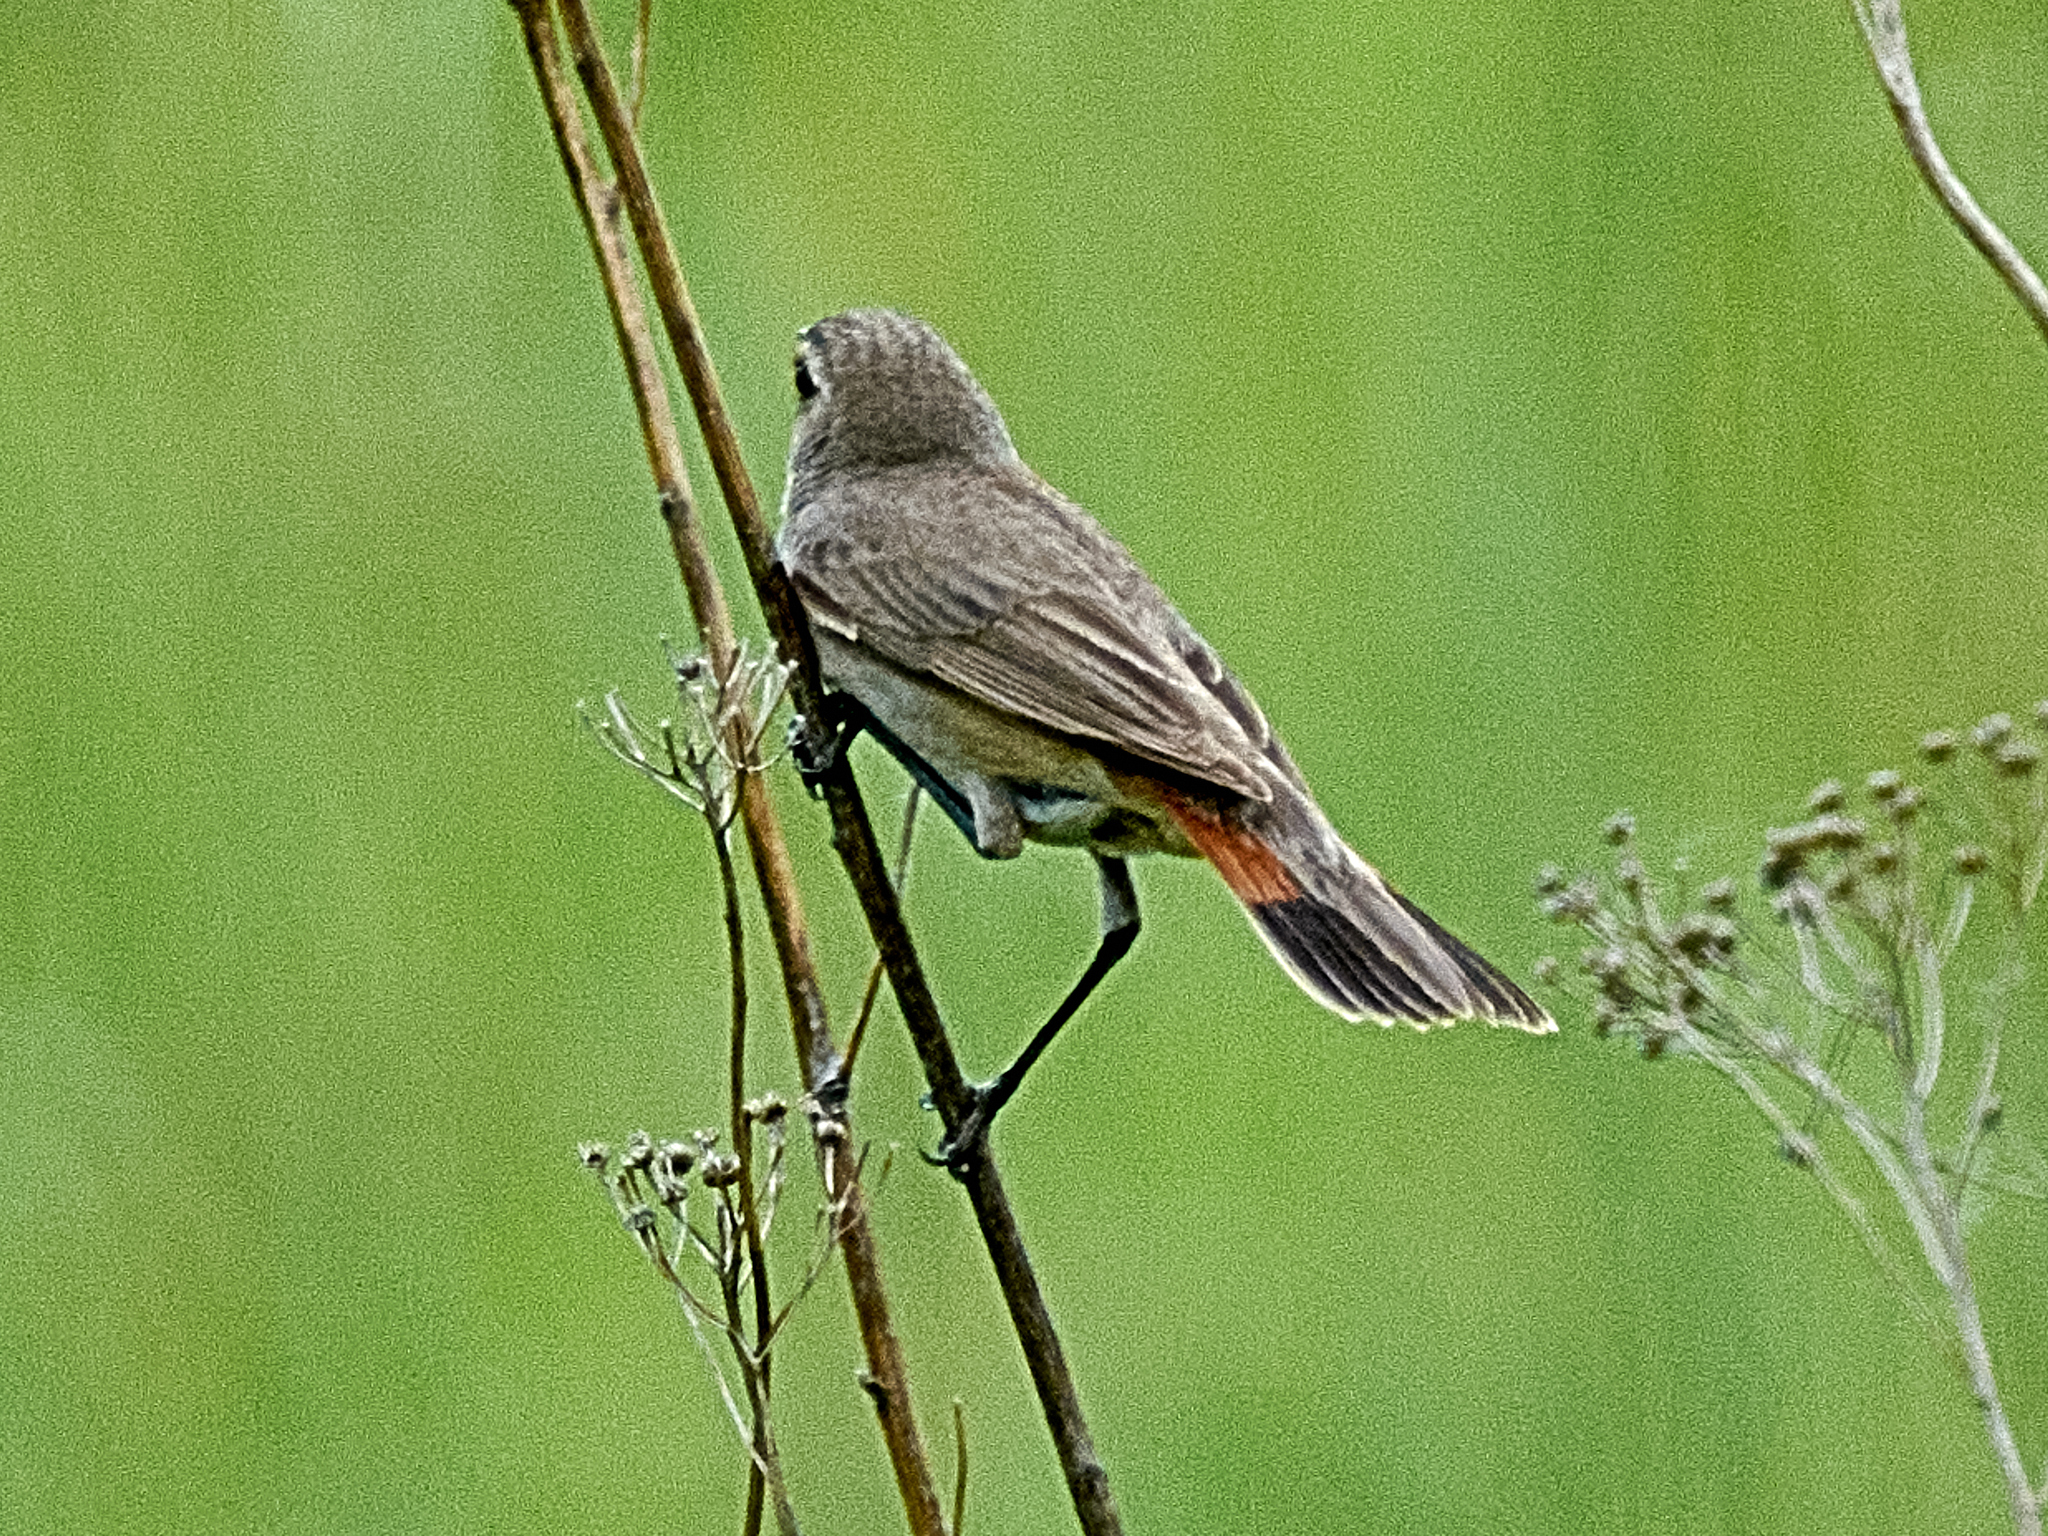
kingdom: Animalia
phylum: Chordata
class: Aves
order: Passeriformes
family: Muscicapidae
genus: Luscinia
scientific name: Luscinia svecica
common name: Bluethroat
